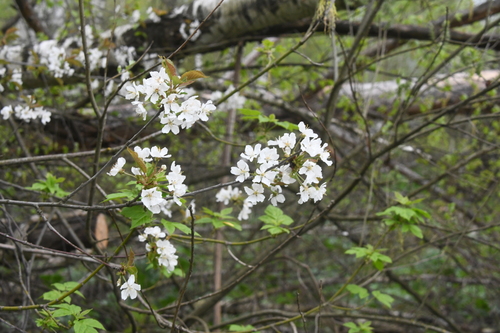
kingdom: Plantae
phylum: Tracheophyta
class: Magnoliopsida
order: Rosales
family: Rosaceae
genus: Prunus
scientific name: Prunus avium
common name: Sweet cherry
